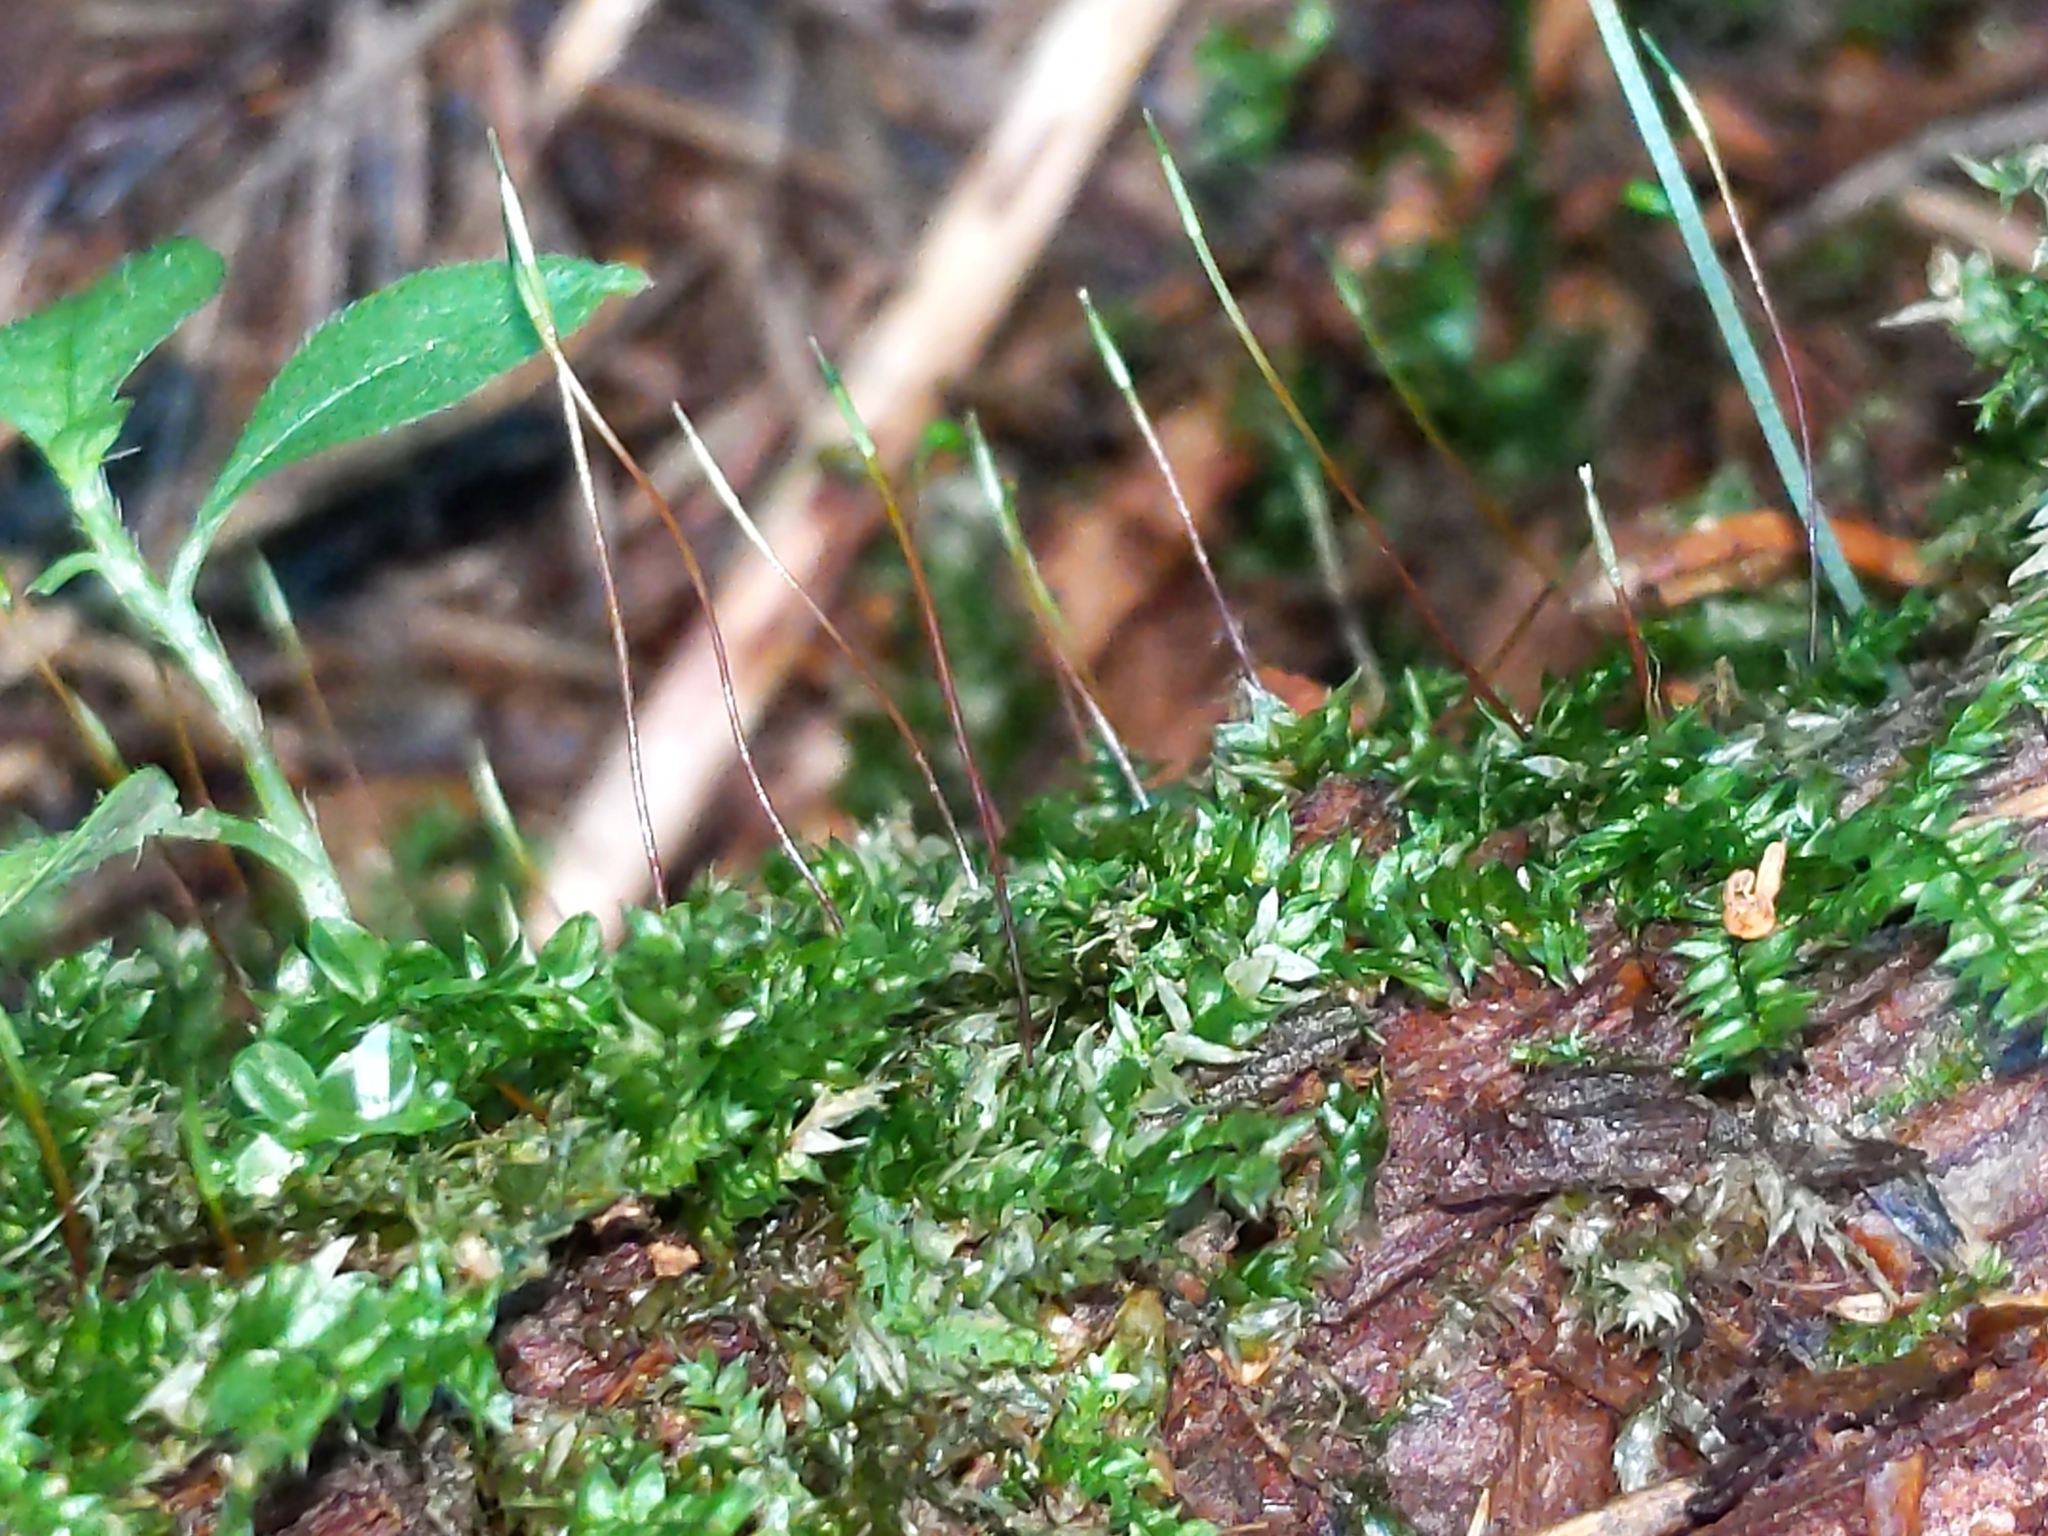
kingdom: Plantae
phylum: Bryophyta
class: Bryopsida
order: Bryales
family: Mniaceae
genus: Plagiomnium
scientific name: Plagiomnium cuspidatum
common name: Woodsy leafy moss
